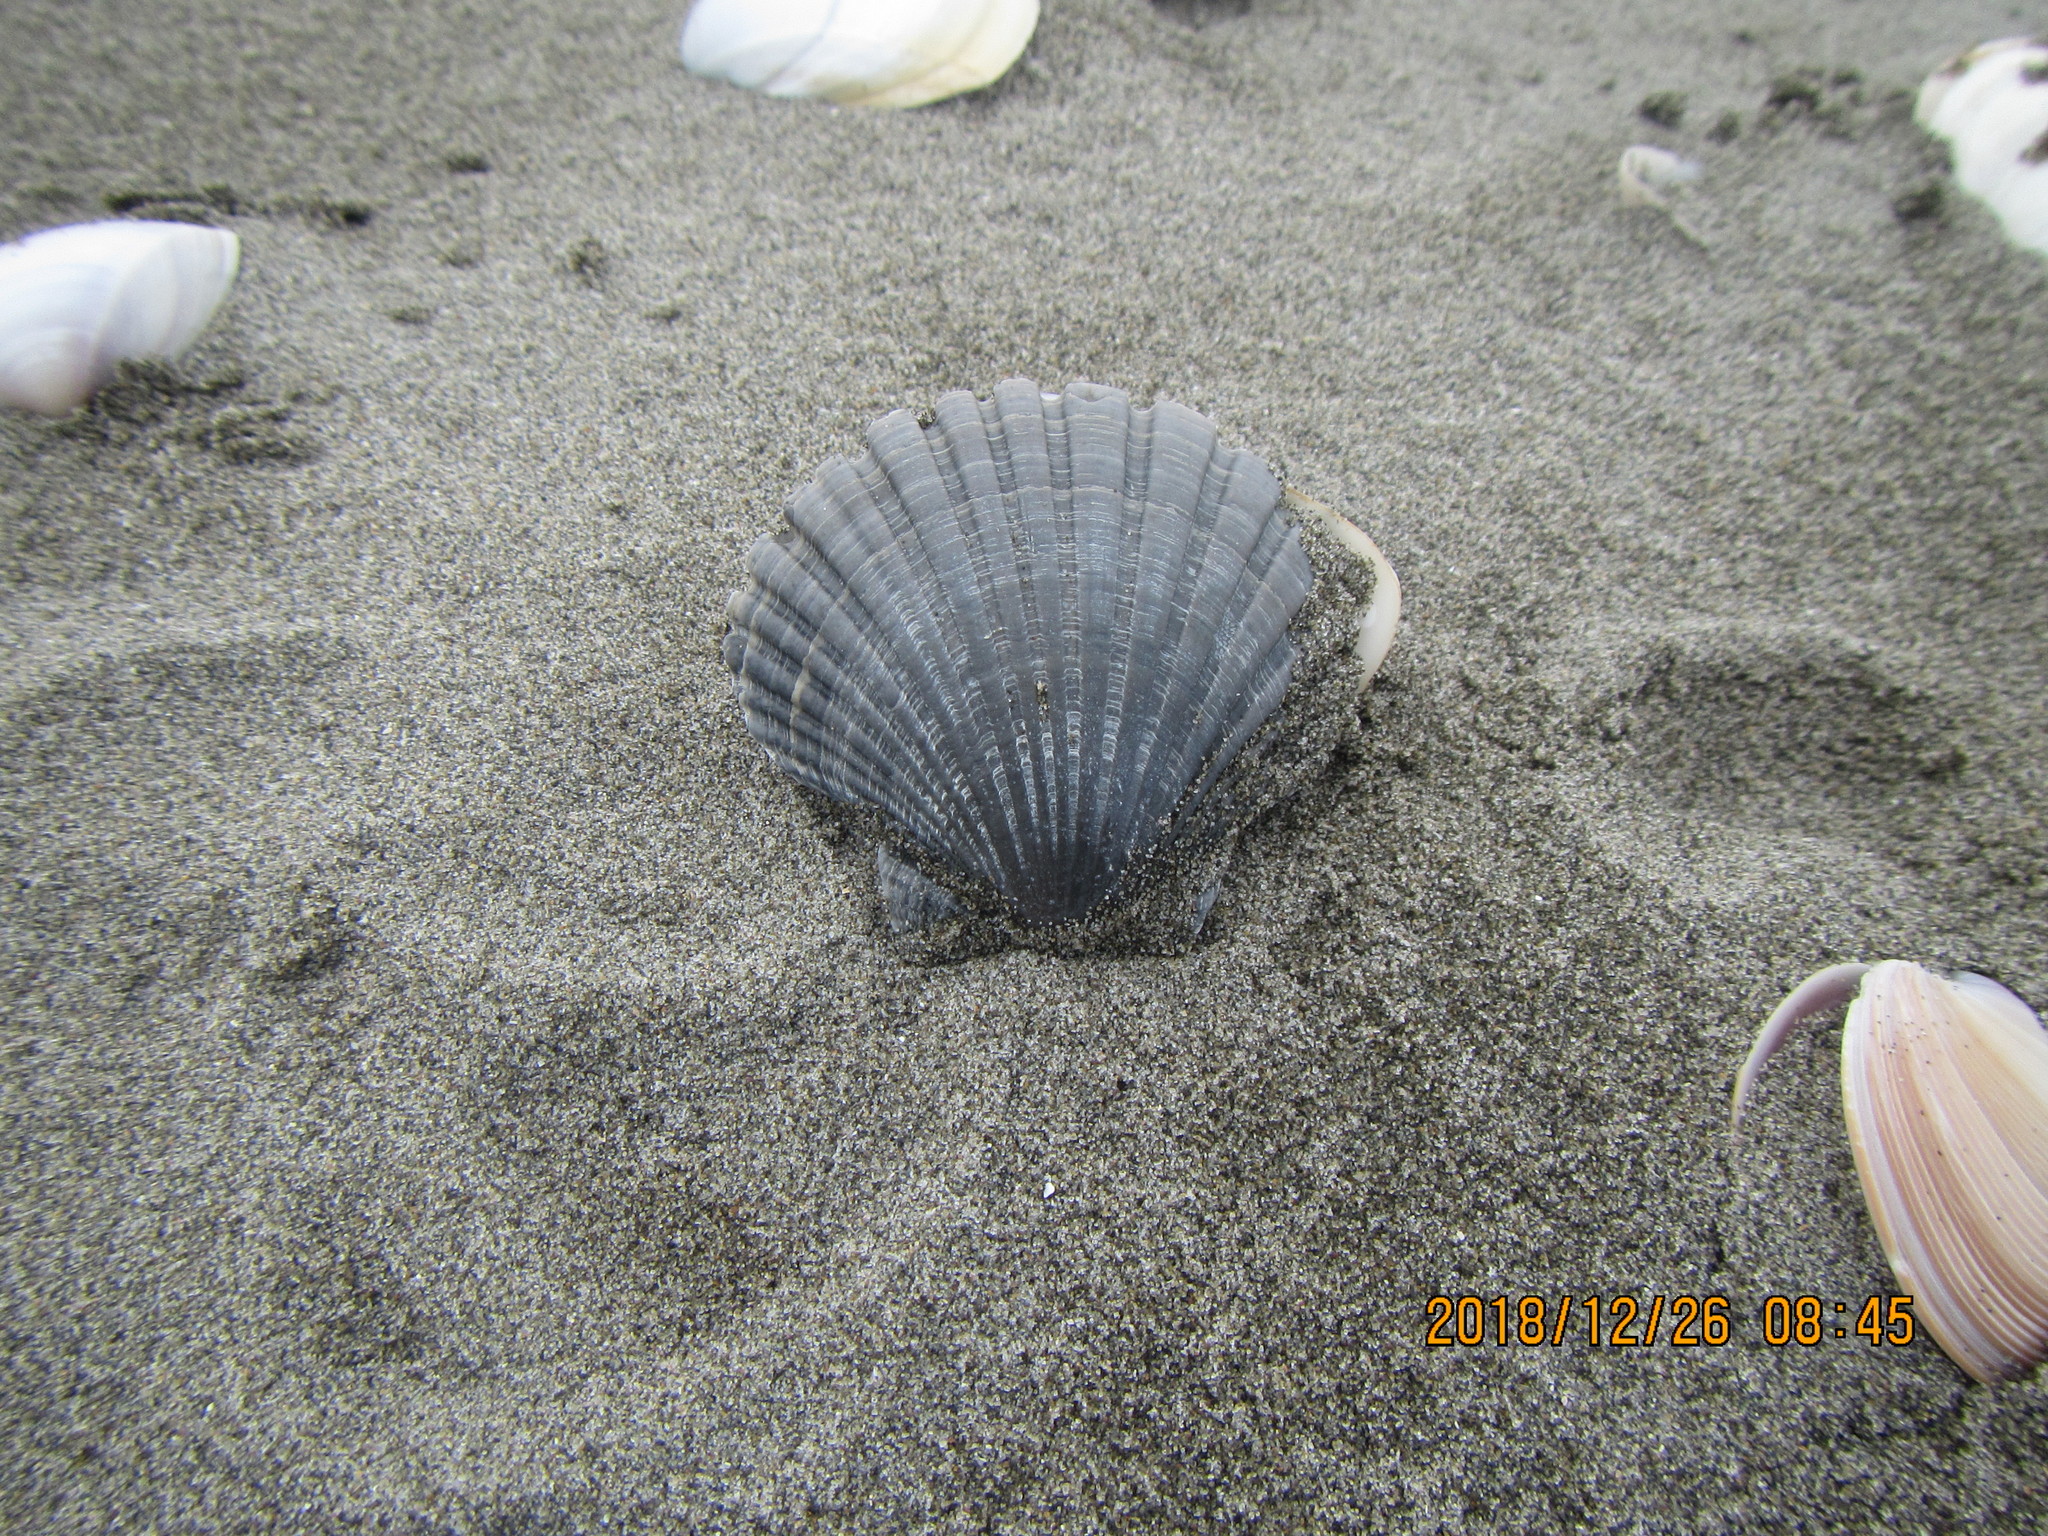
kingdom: Animalia
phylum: Mollusca
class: Bivalvia
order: Pectinida
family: Pectinidae
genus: Pecten
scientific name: Pecten novaezelandiae
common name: New zealand scallop
